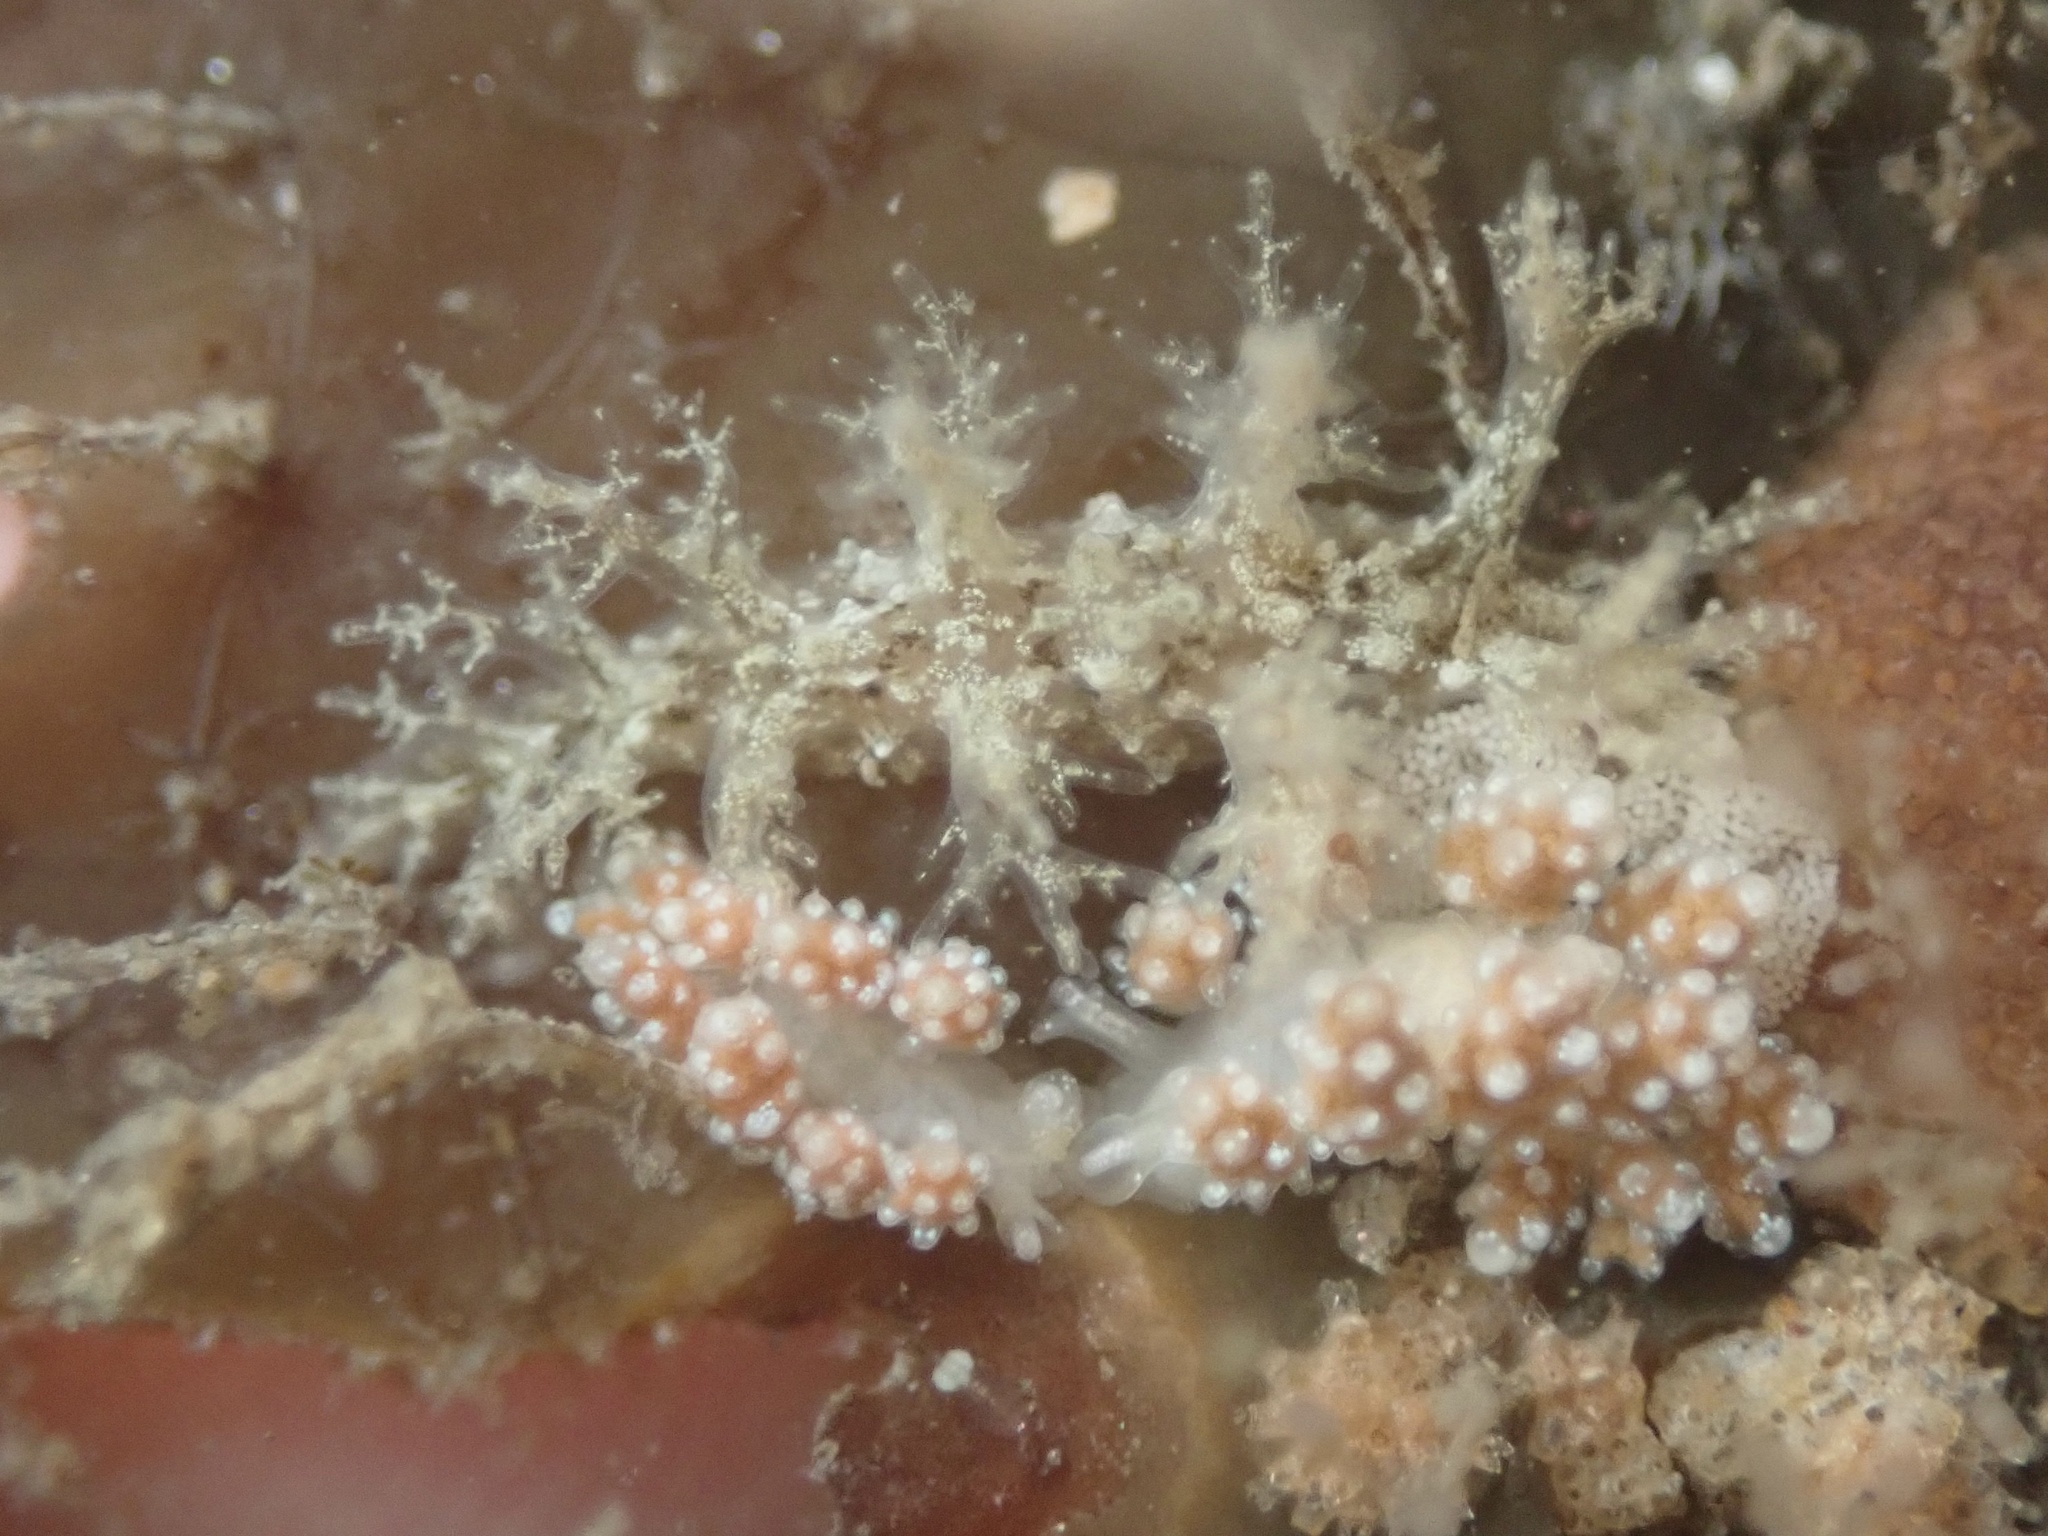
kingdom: Animalia
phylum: Mollusca
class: Gastropoda
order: Nudibranchia
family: Dendronotidae
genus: Dendronotus
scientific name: Dendronotus venustus
